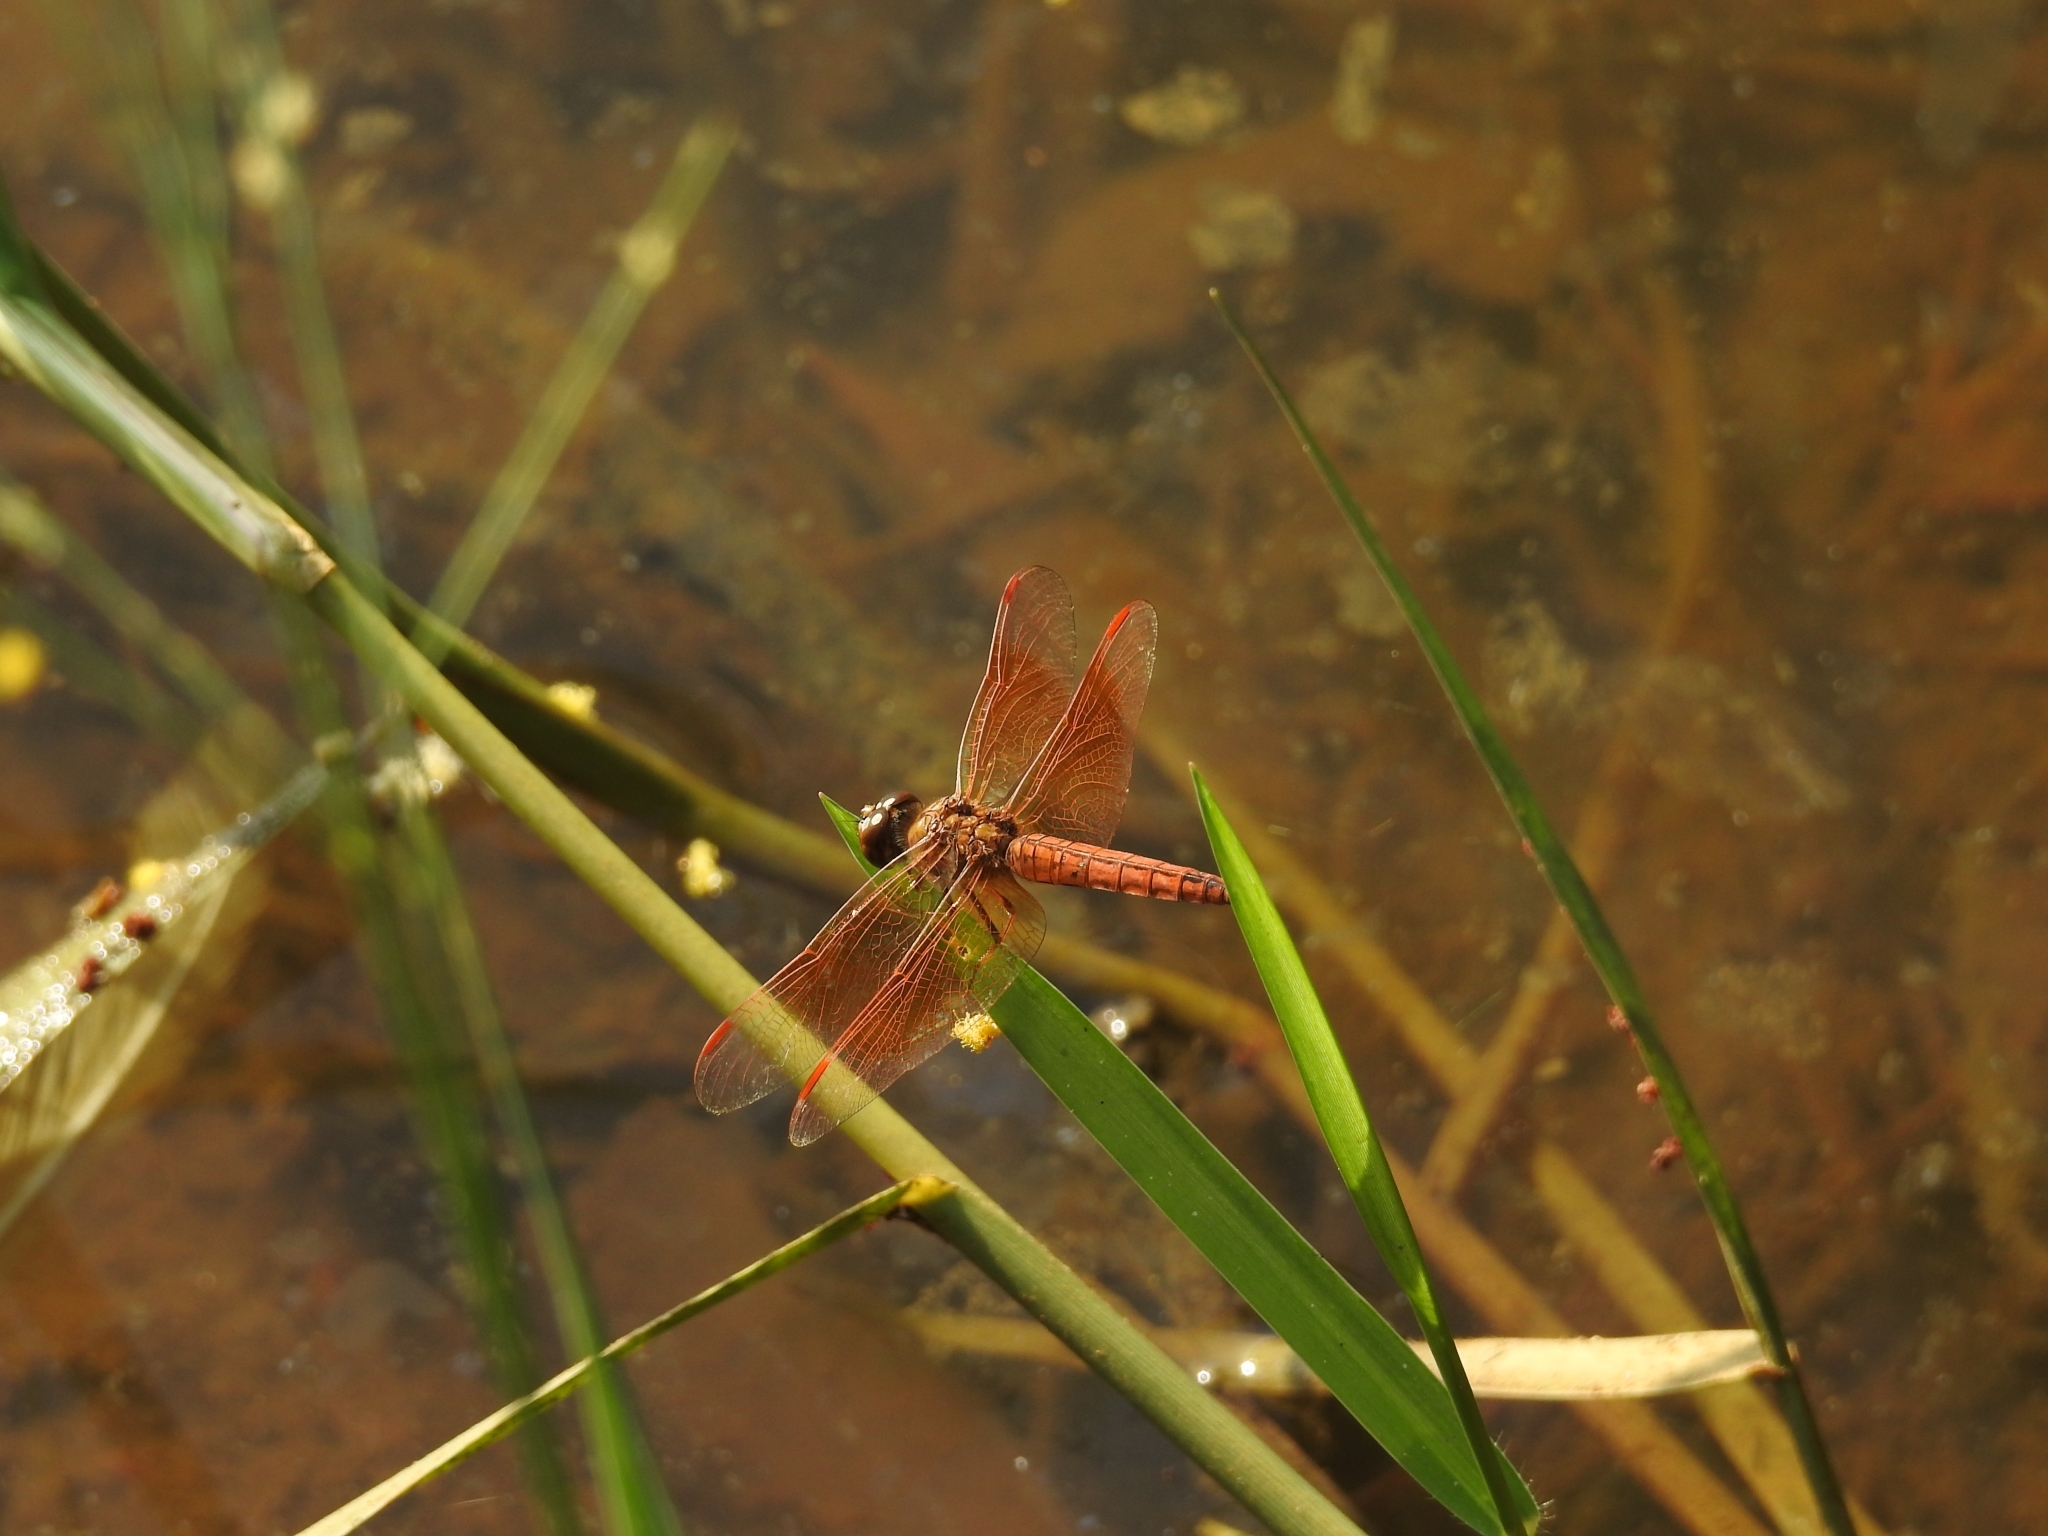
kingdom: Animalia
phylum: Arthropoda
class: Insecta
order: Odonata
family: Libellulidae
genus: Brachythemis
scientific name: Brachythemis contaminata
